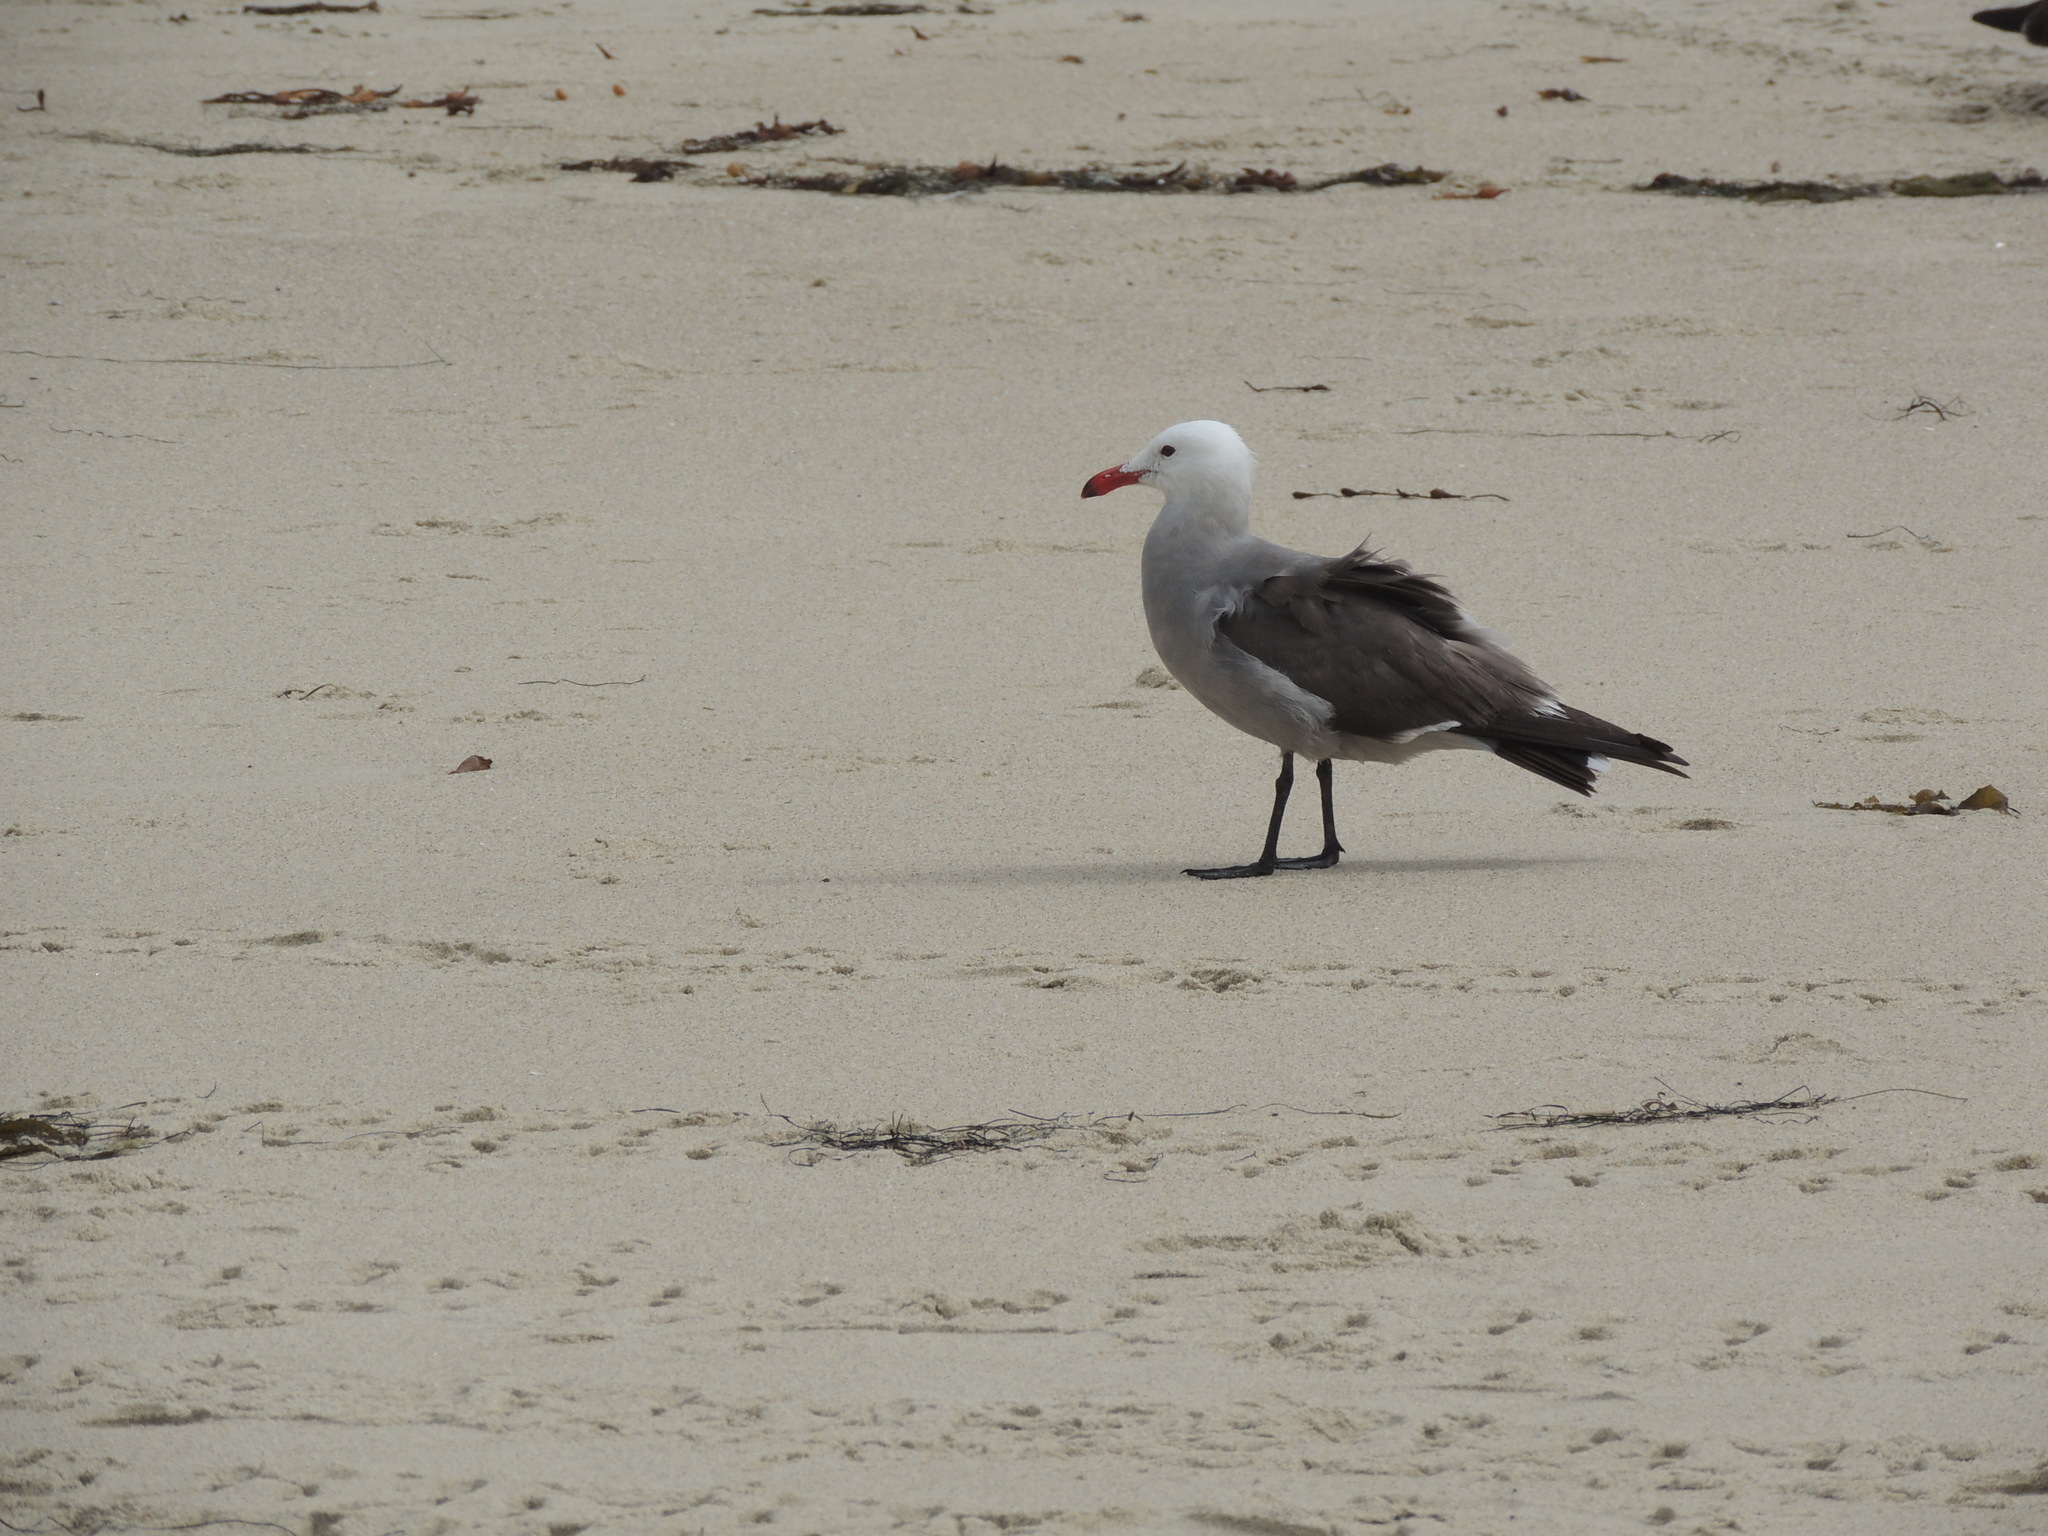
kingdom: Animalia
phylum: Chordata
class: Aves
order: Charadriiformes
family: Laridae
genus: Larus
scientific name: Larus heermanni
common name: Heermann's gull
